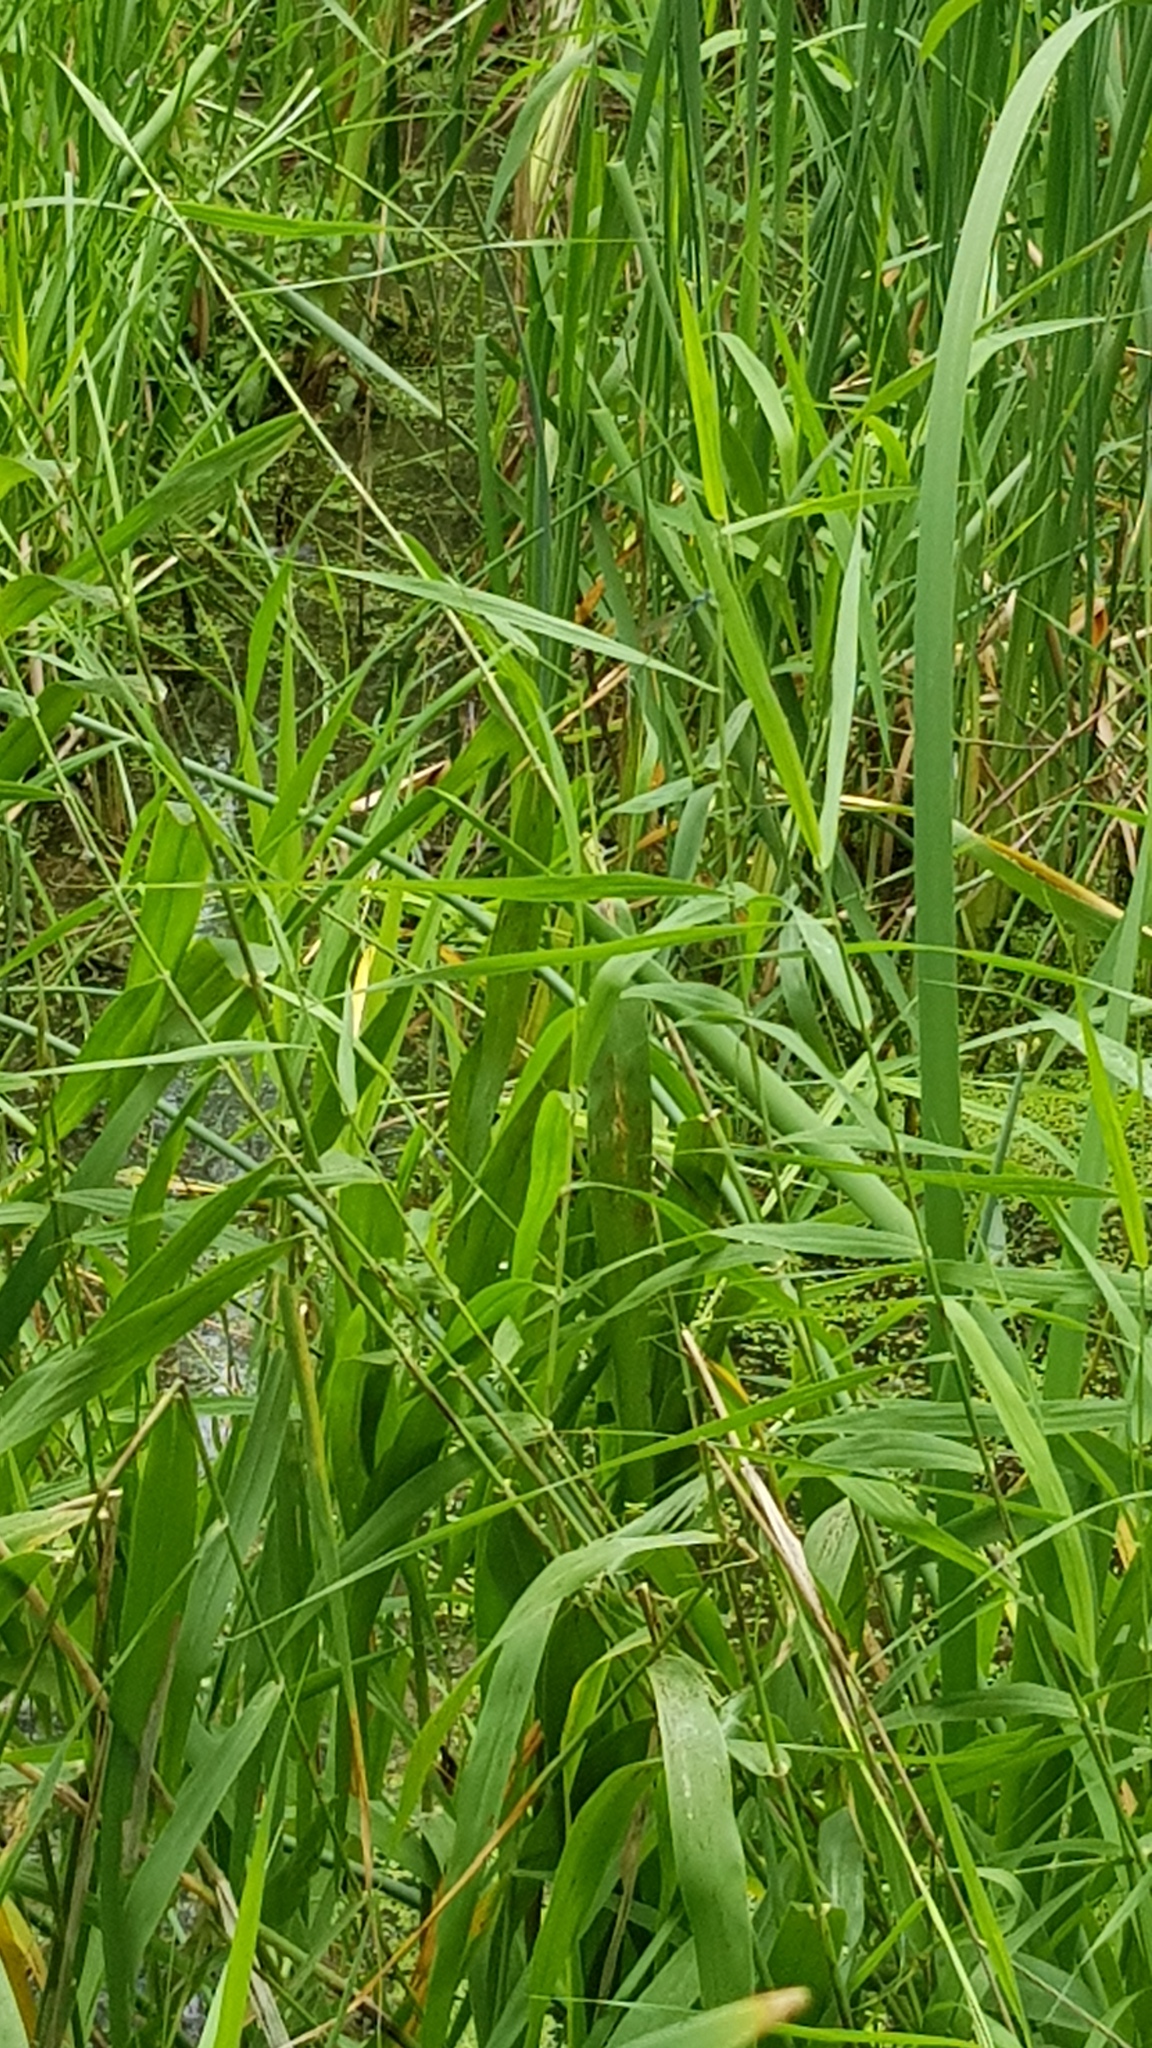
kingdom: Animalia
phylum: Chordata
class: Amphibia
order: Anura
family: Pelodryadidae
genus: Litoria
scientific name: Litoria fallax
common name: Eastern dwarf treefrog
